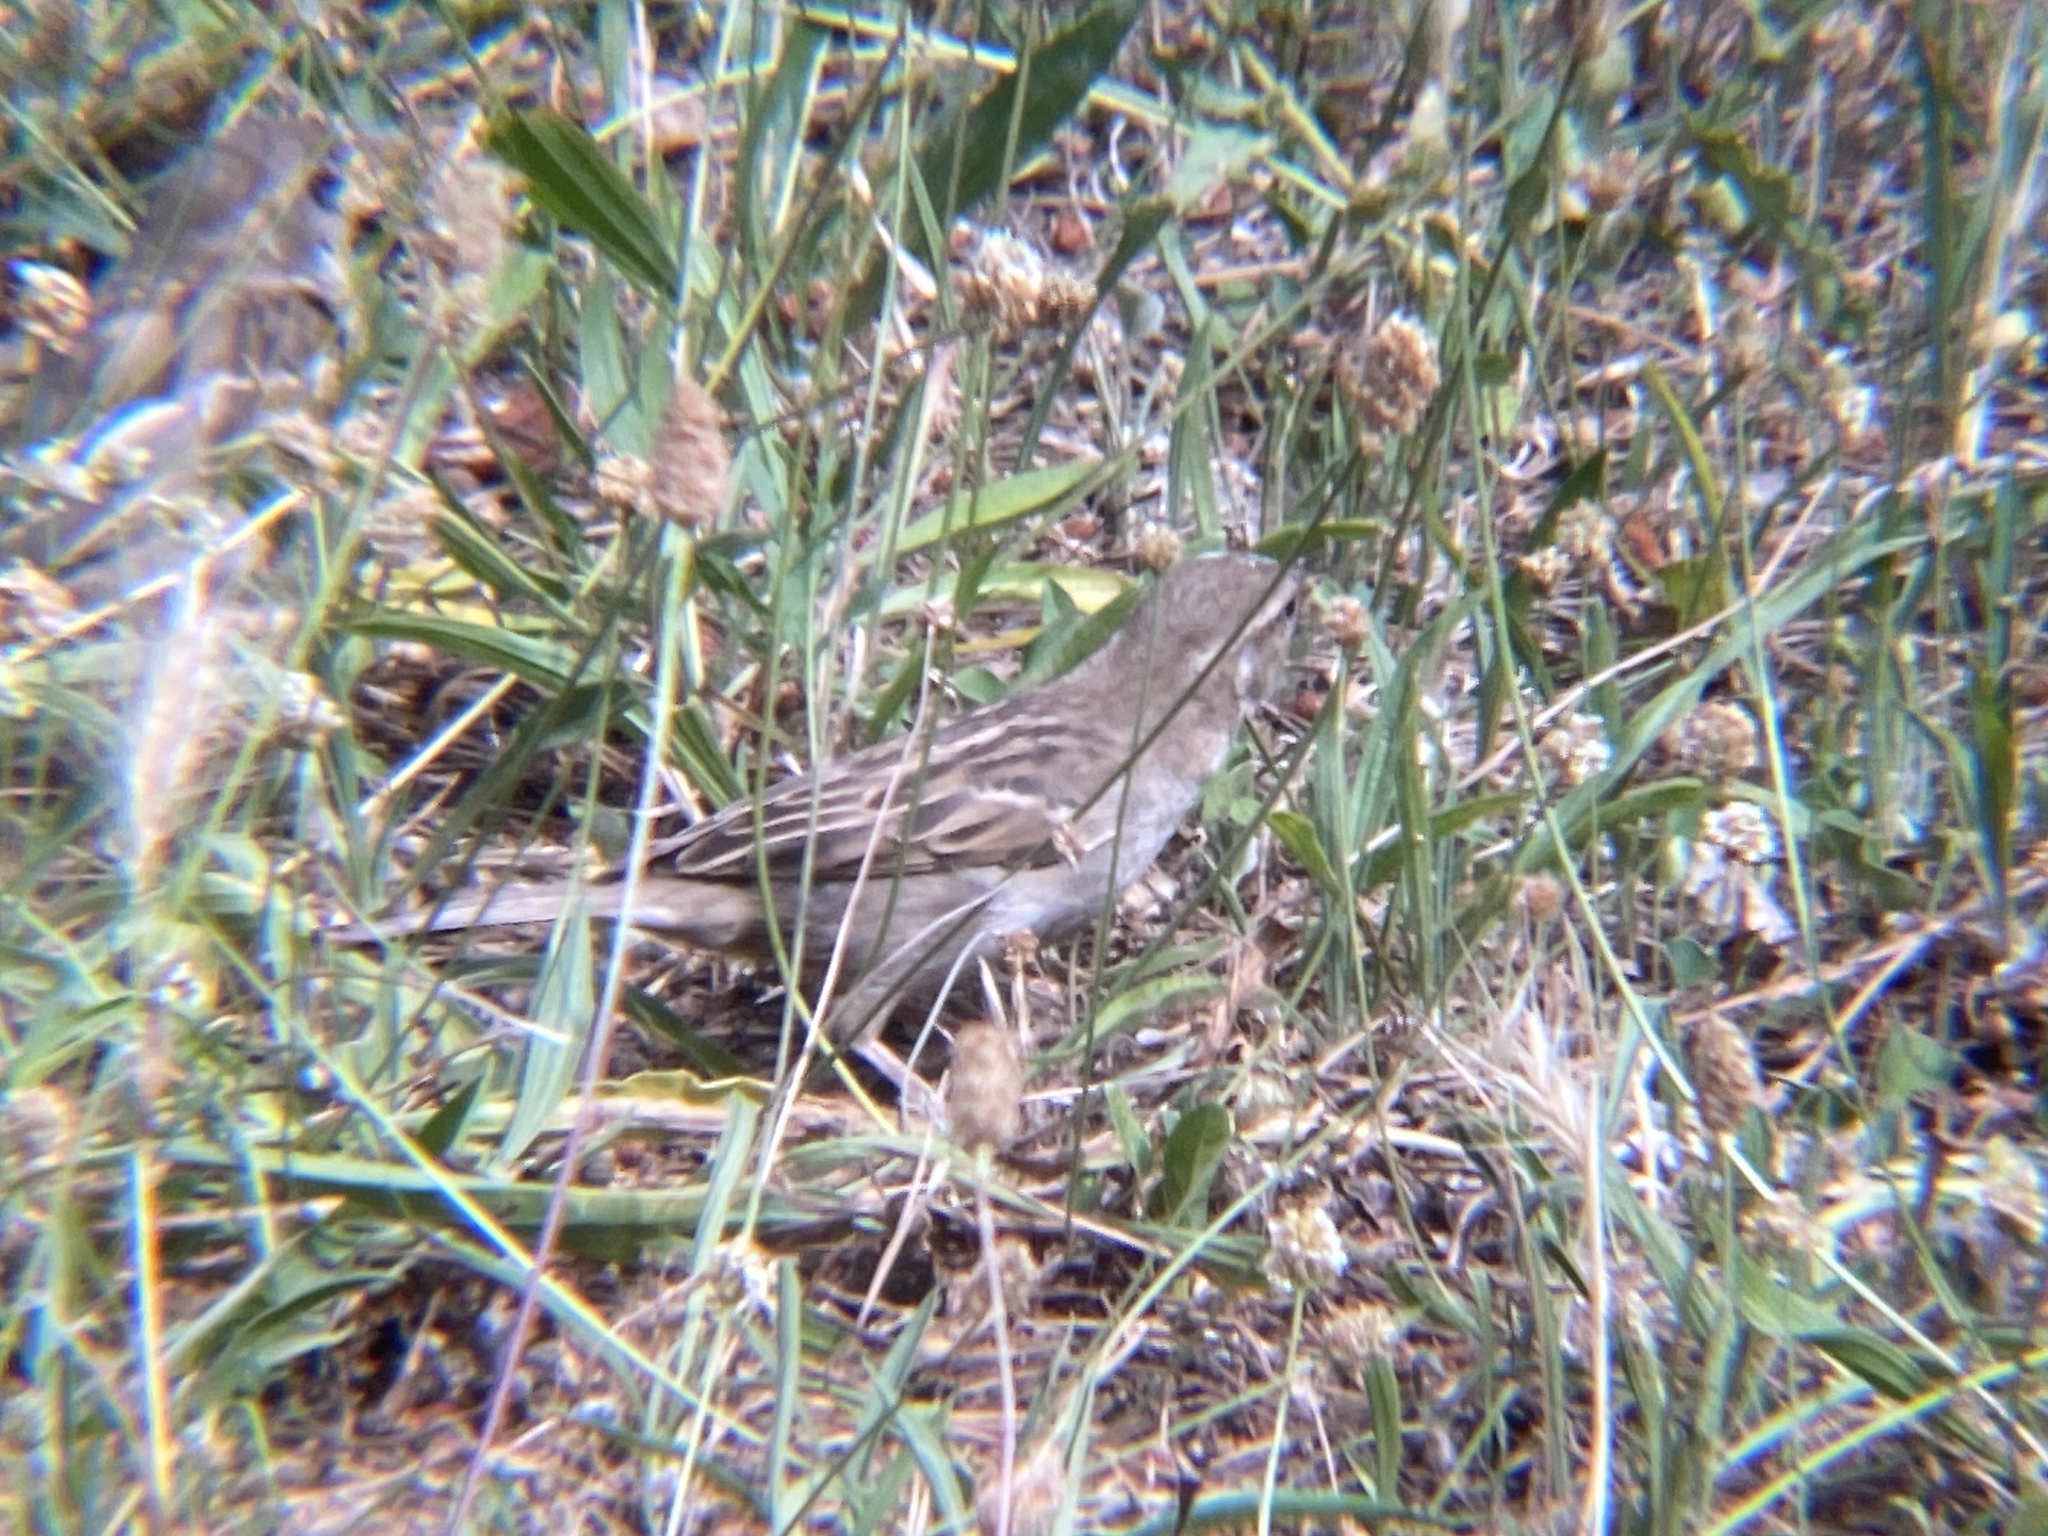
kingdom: Animalia
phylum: Chordata
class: Aves
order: Passeriformes
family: Passeridae
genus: Passer
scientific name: Passer domesticus
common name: House sparrow
